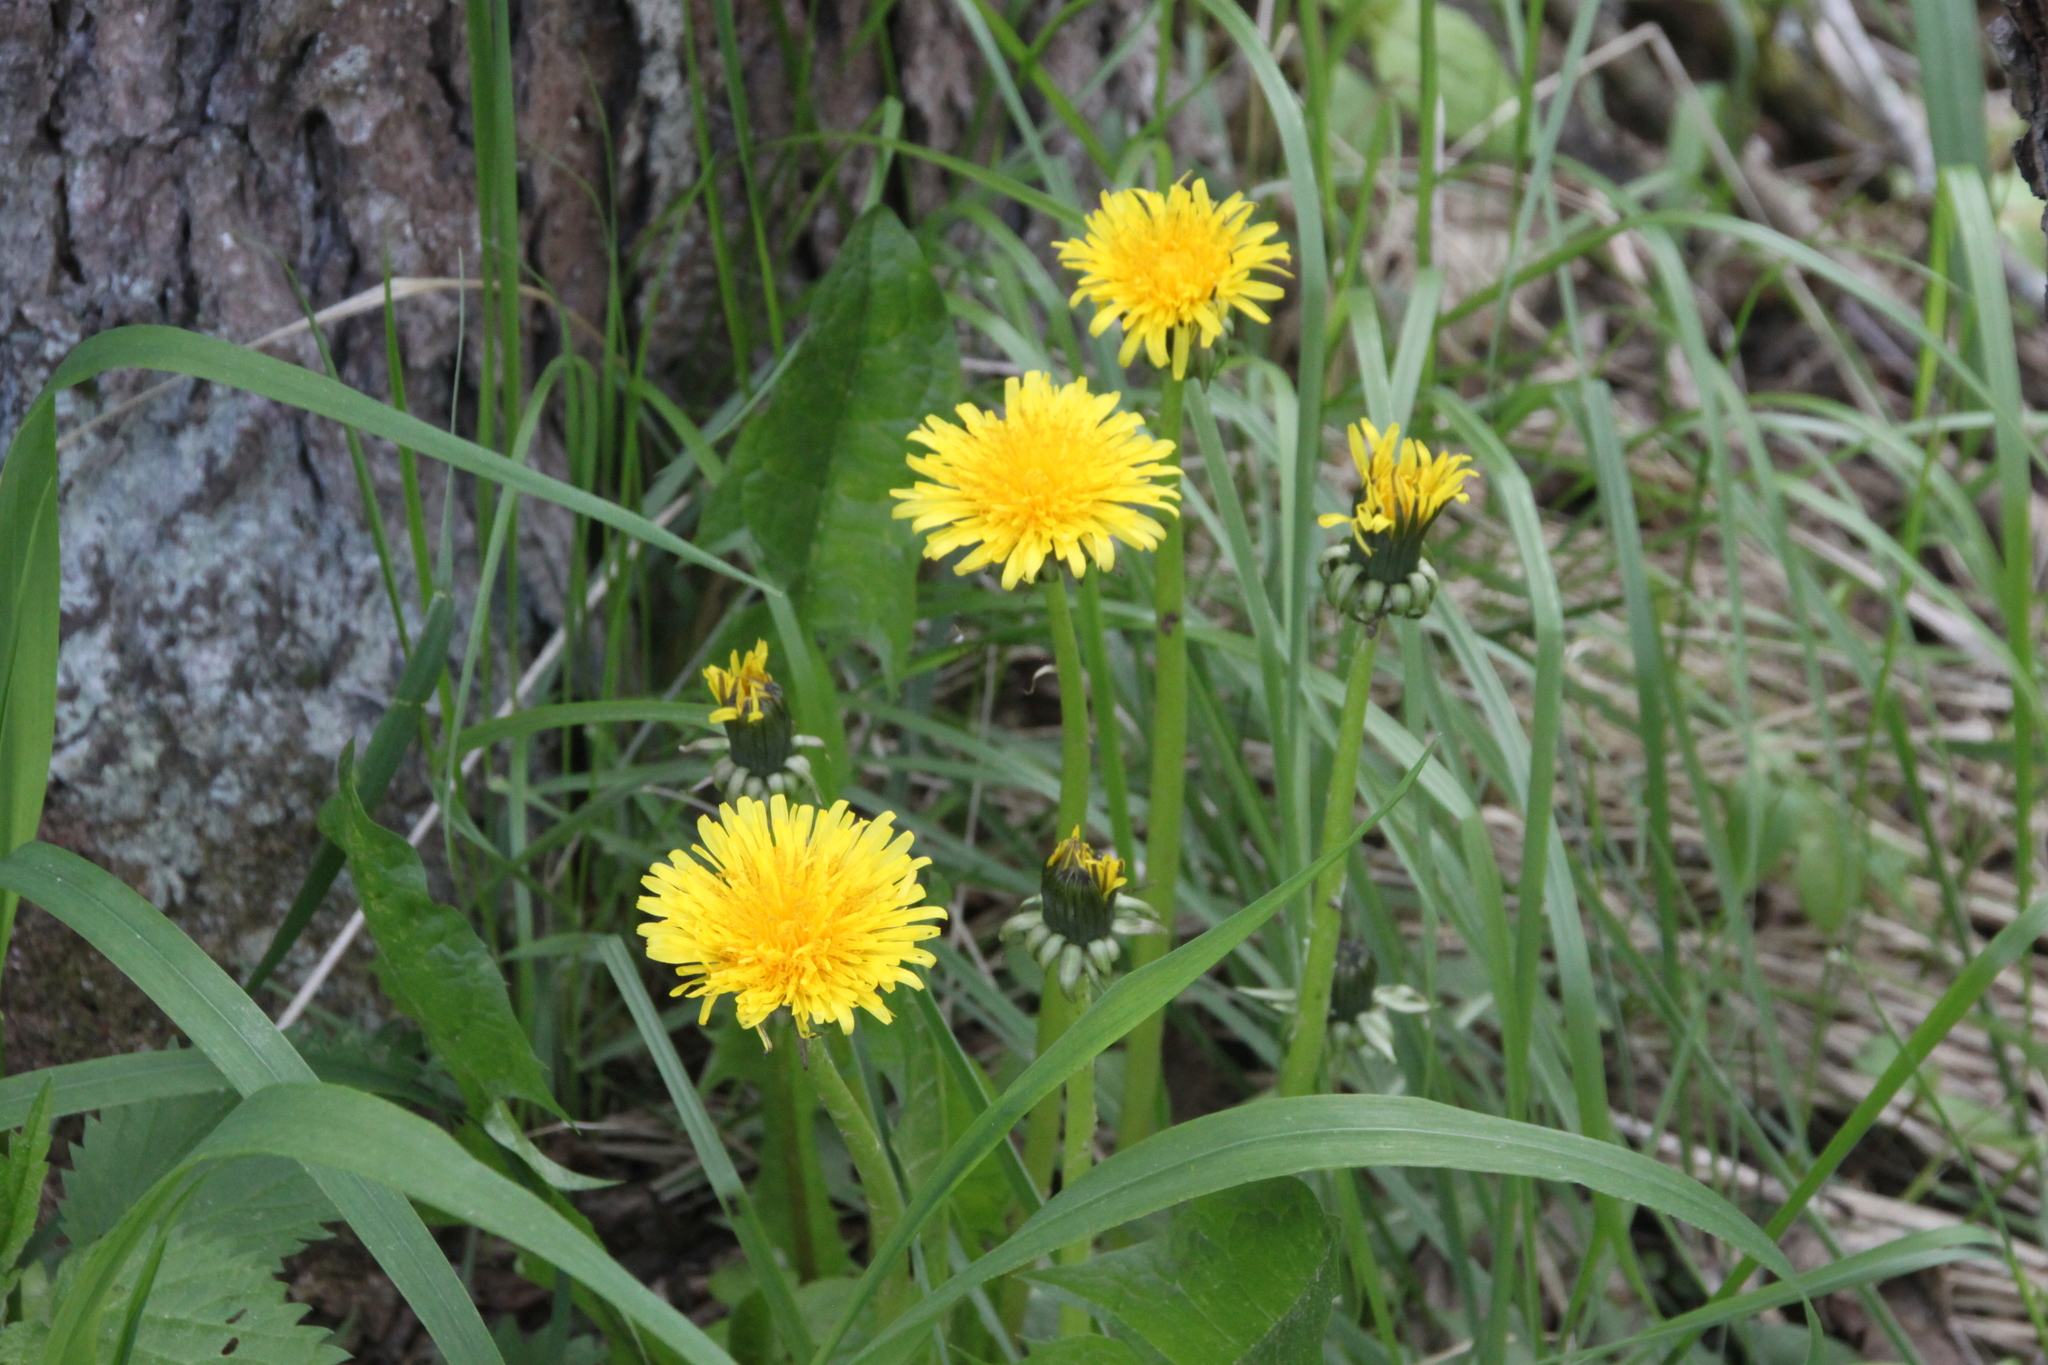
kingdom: Plantae
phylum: Tracheophyta
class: Magnoliopsida
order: Asterales
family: Asteraceae
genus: Taraxacum
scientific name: Taraxacum officinale
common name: Common dandelion
